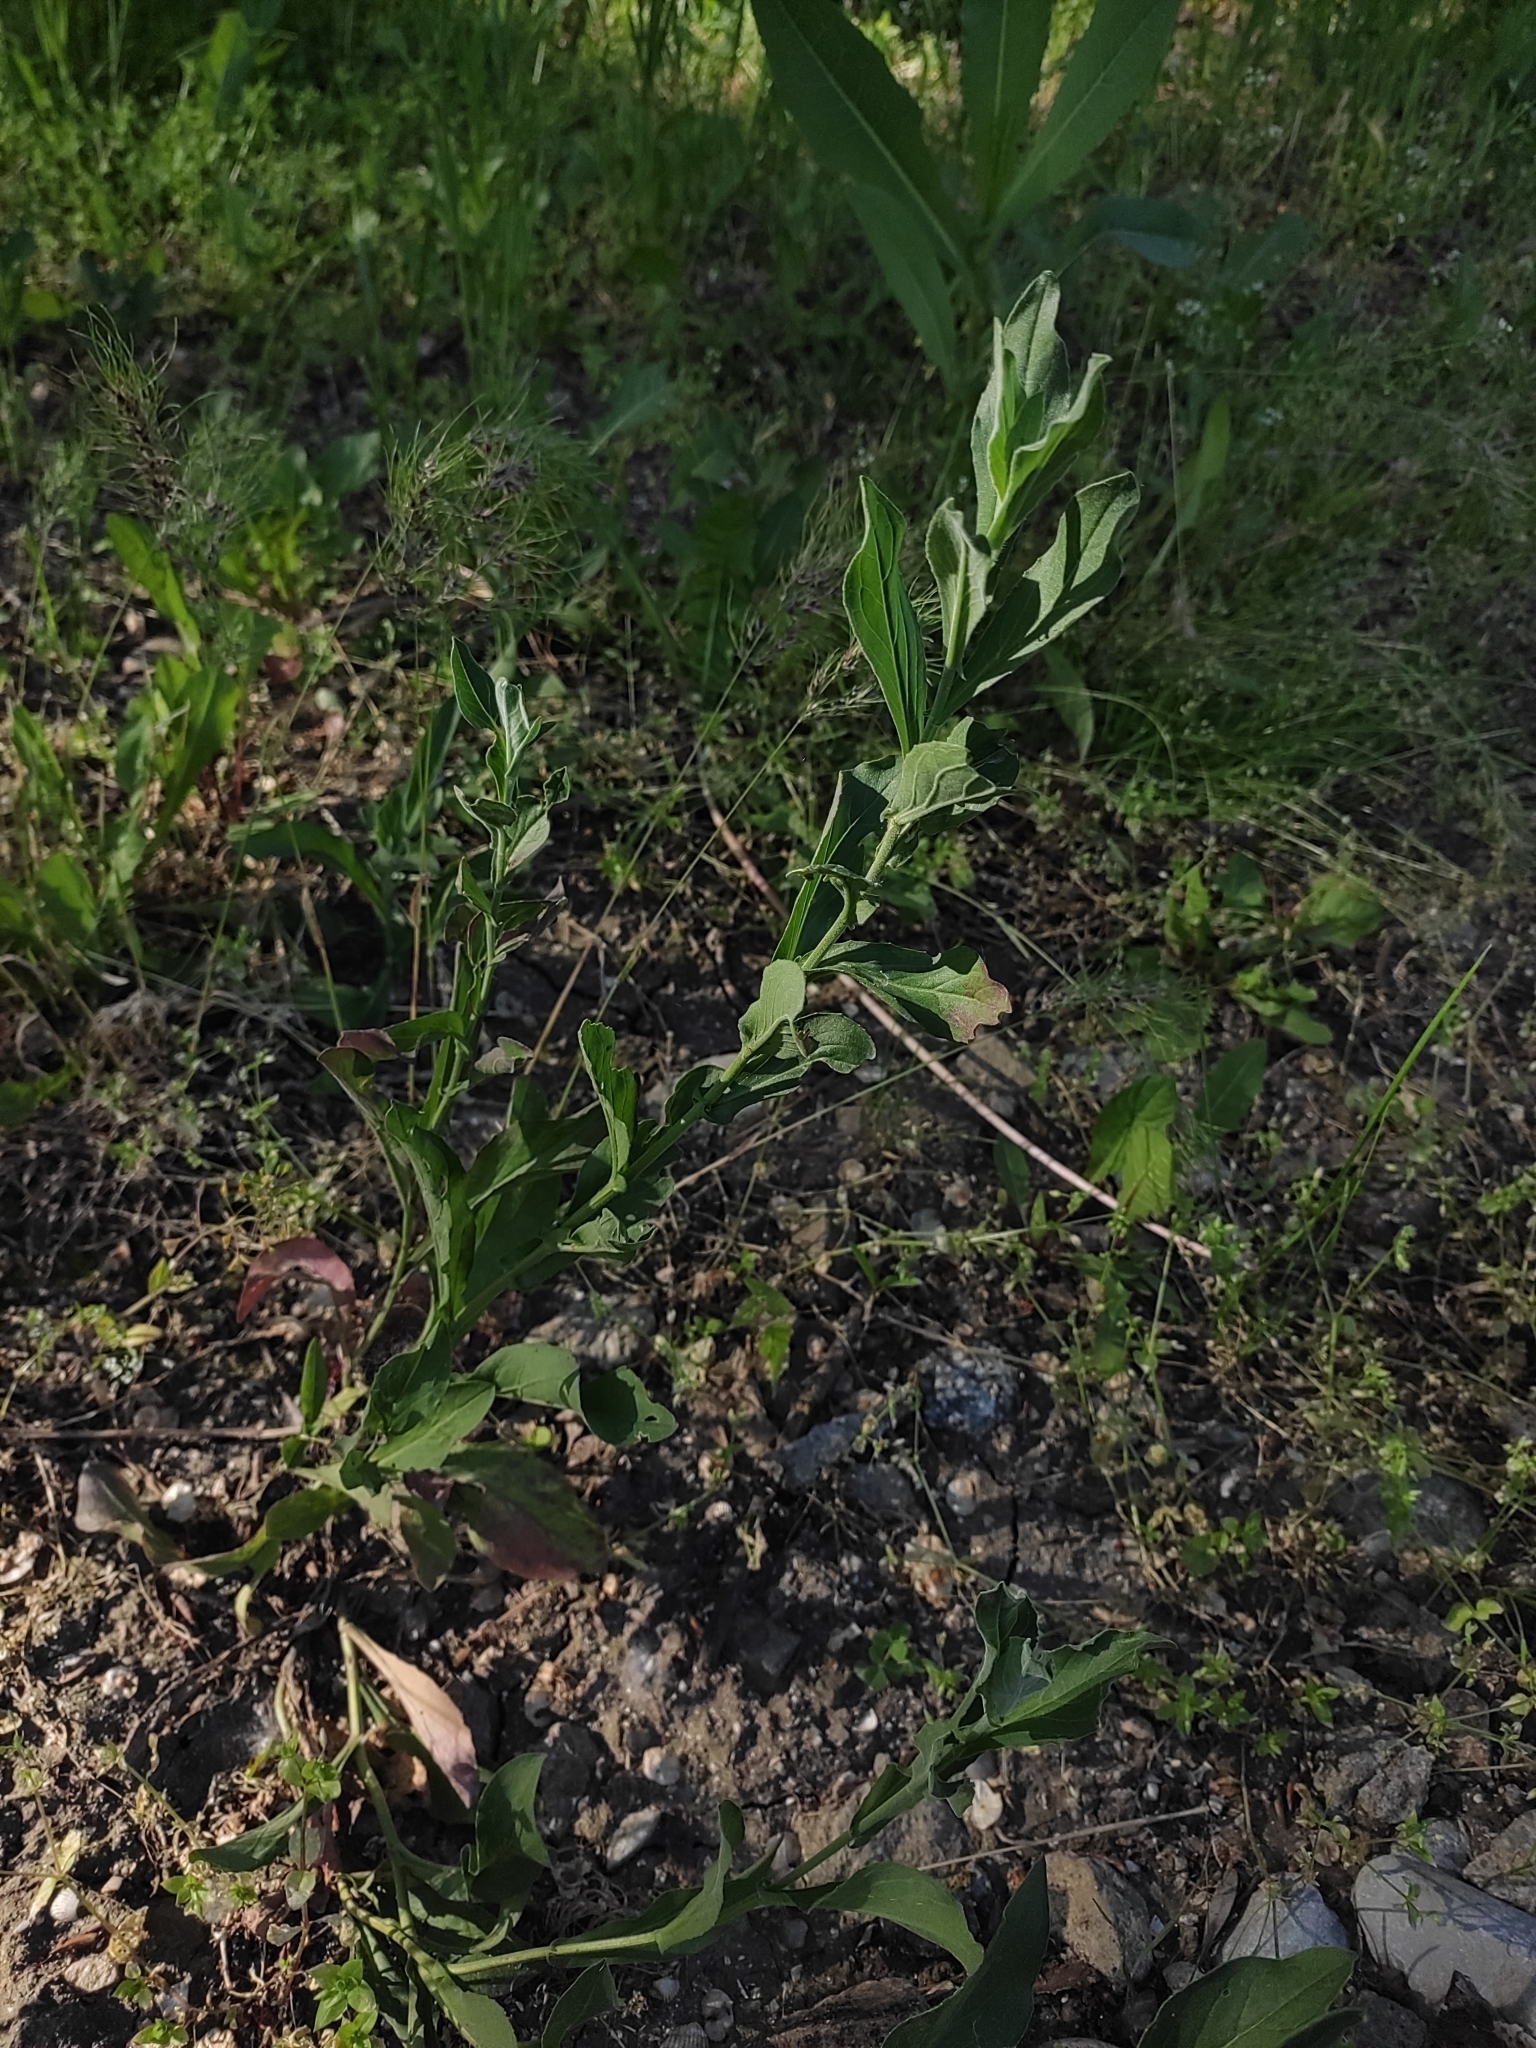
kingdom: Plantae
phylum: Tracheophyta
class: Magnoliopsida
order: Brassicales
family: Brassicaceae
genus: Lepidium
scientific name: Lepidium draba
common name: Hoary cress
